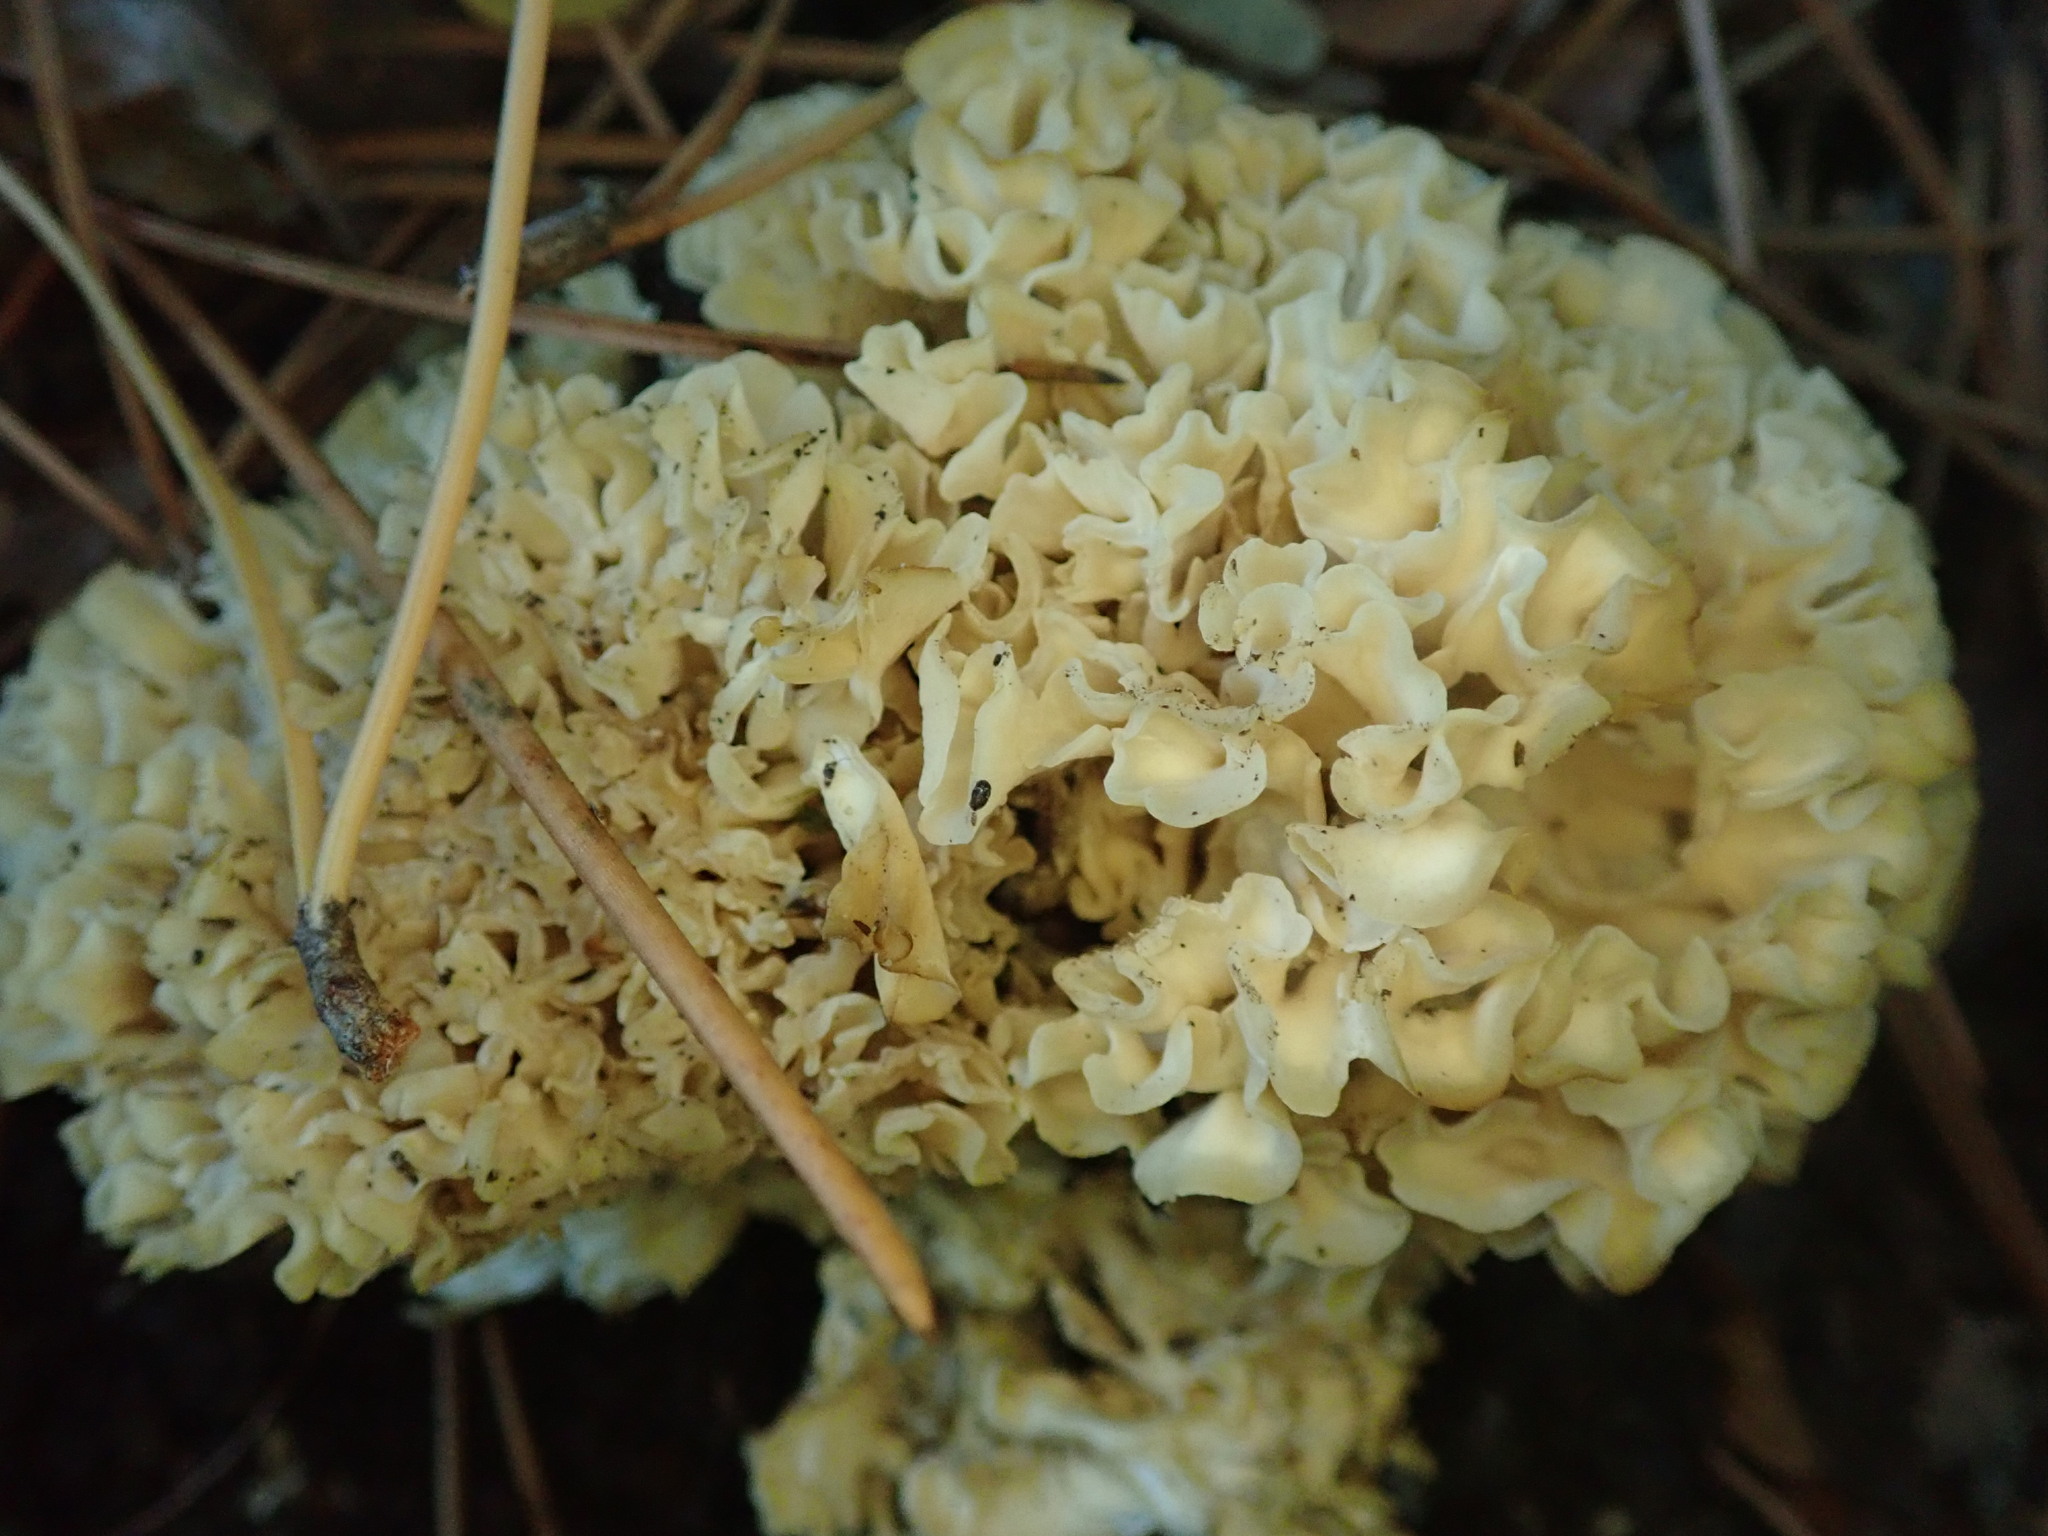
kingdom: Fungi
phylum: Basidiomycota
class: Agaricomycetes
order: Polyporales
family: Sparassidaceae
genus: Sparassis
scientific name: Sparassis crispa
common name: Brain fungus
